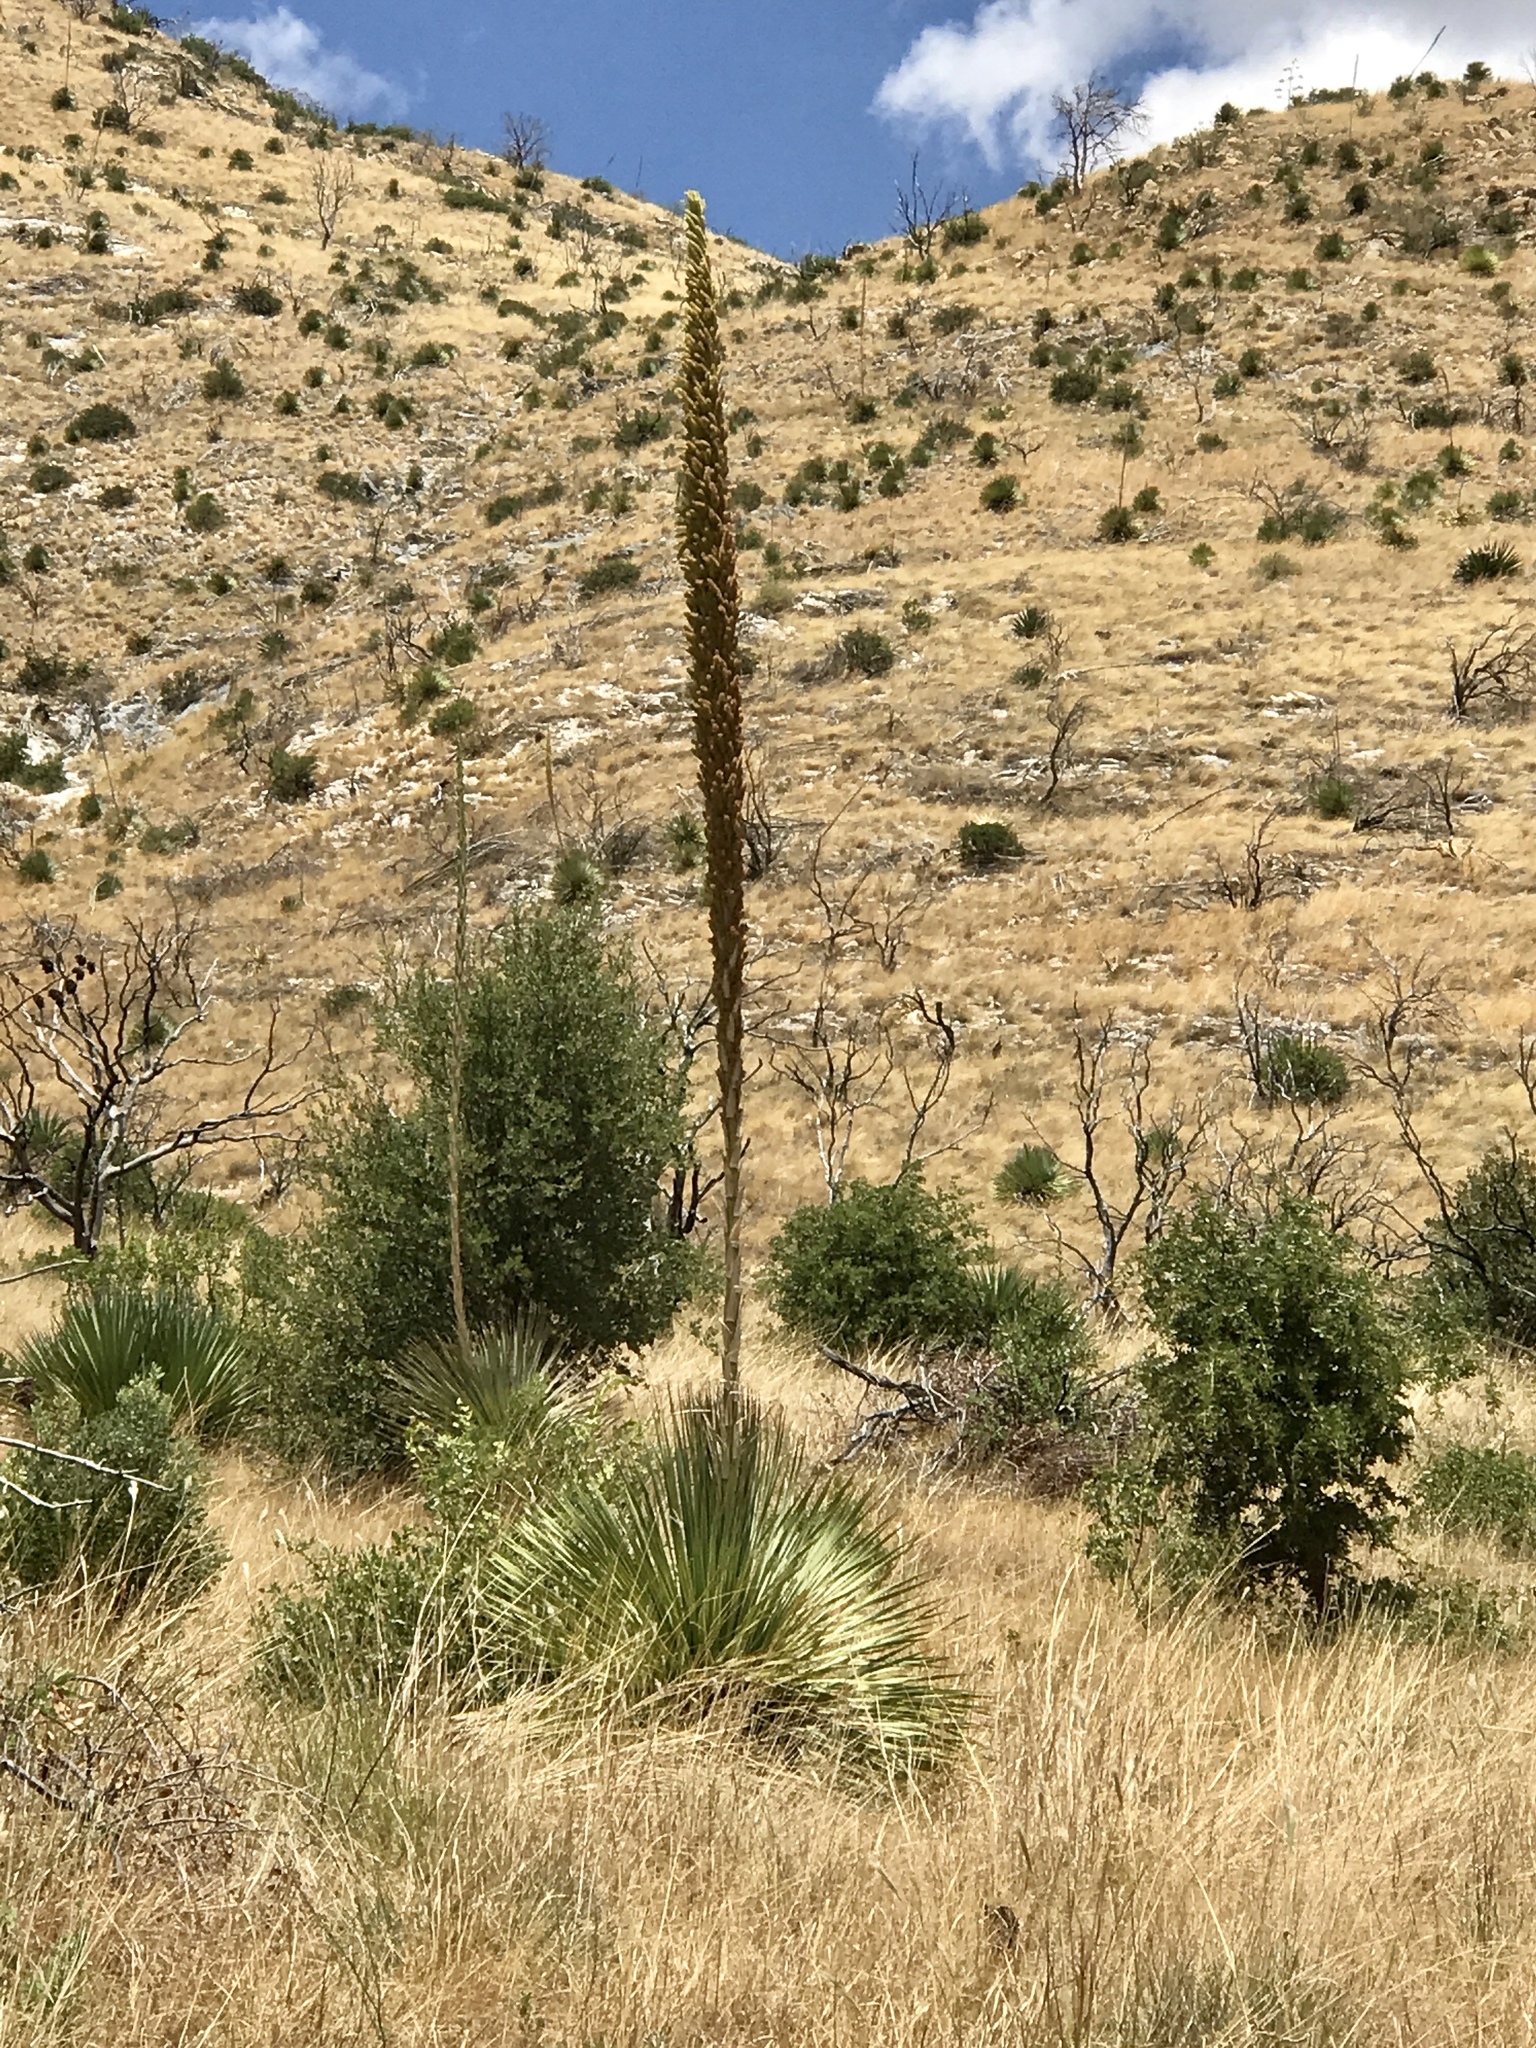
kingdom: Plantae
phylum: Tracheophyta
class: Liliopsida
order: Asparagales
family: Asparagaceae
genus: Dasylirion
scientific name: Dasylirion wheeleri
